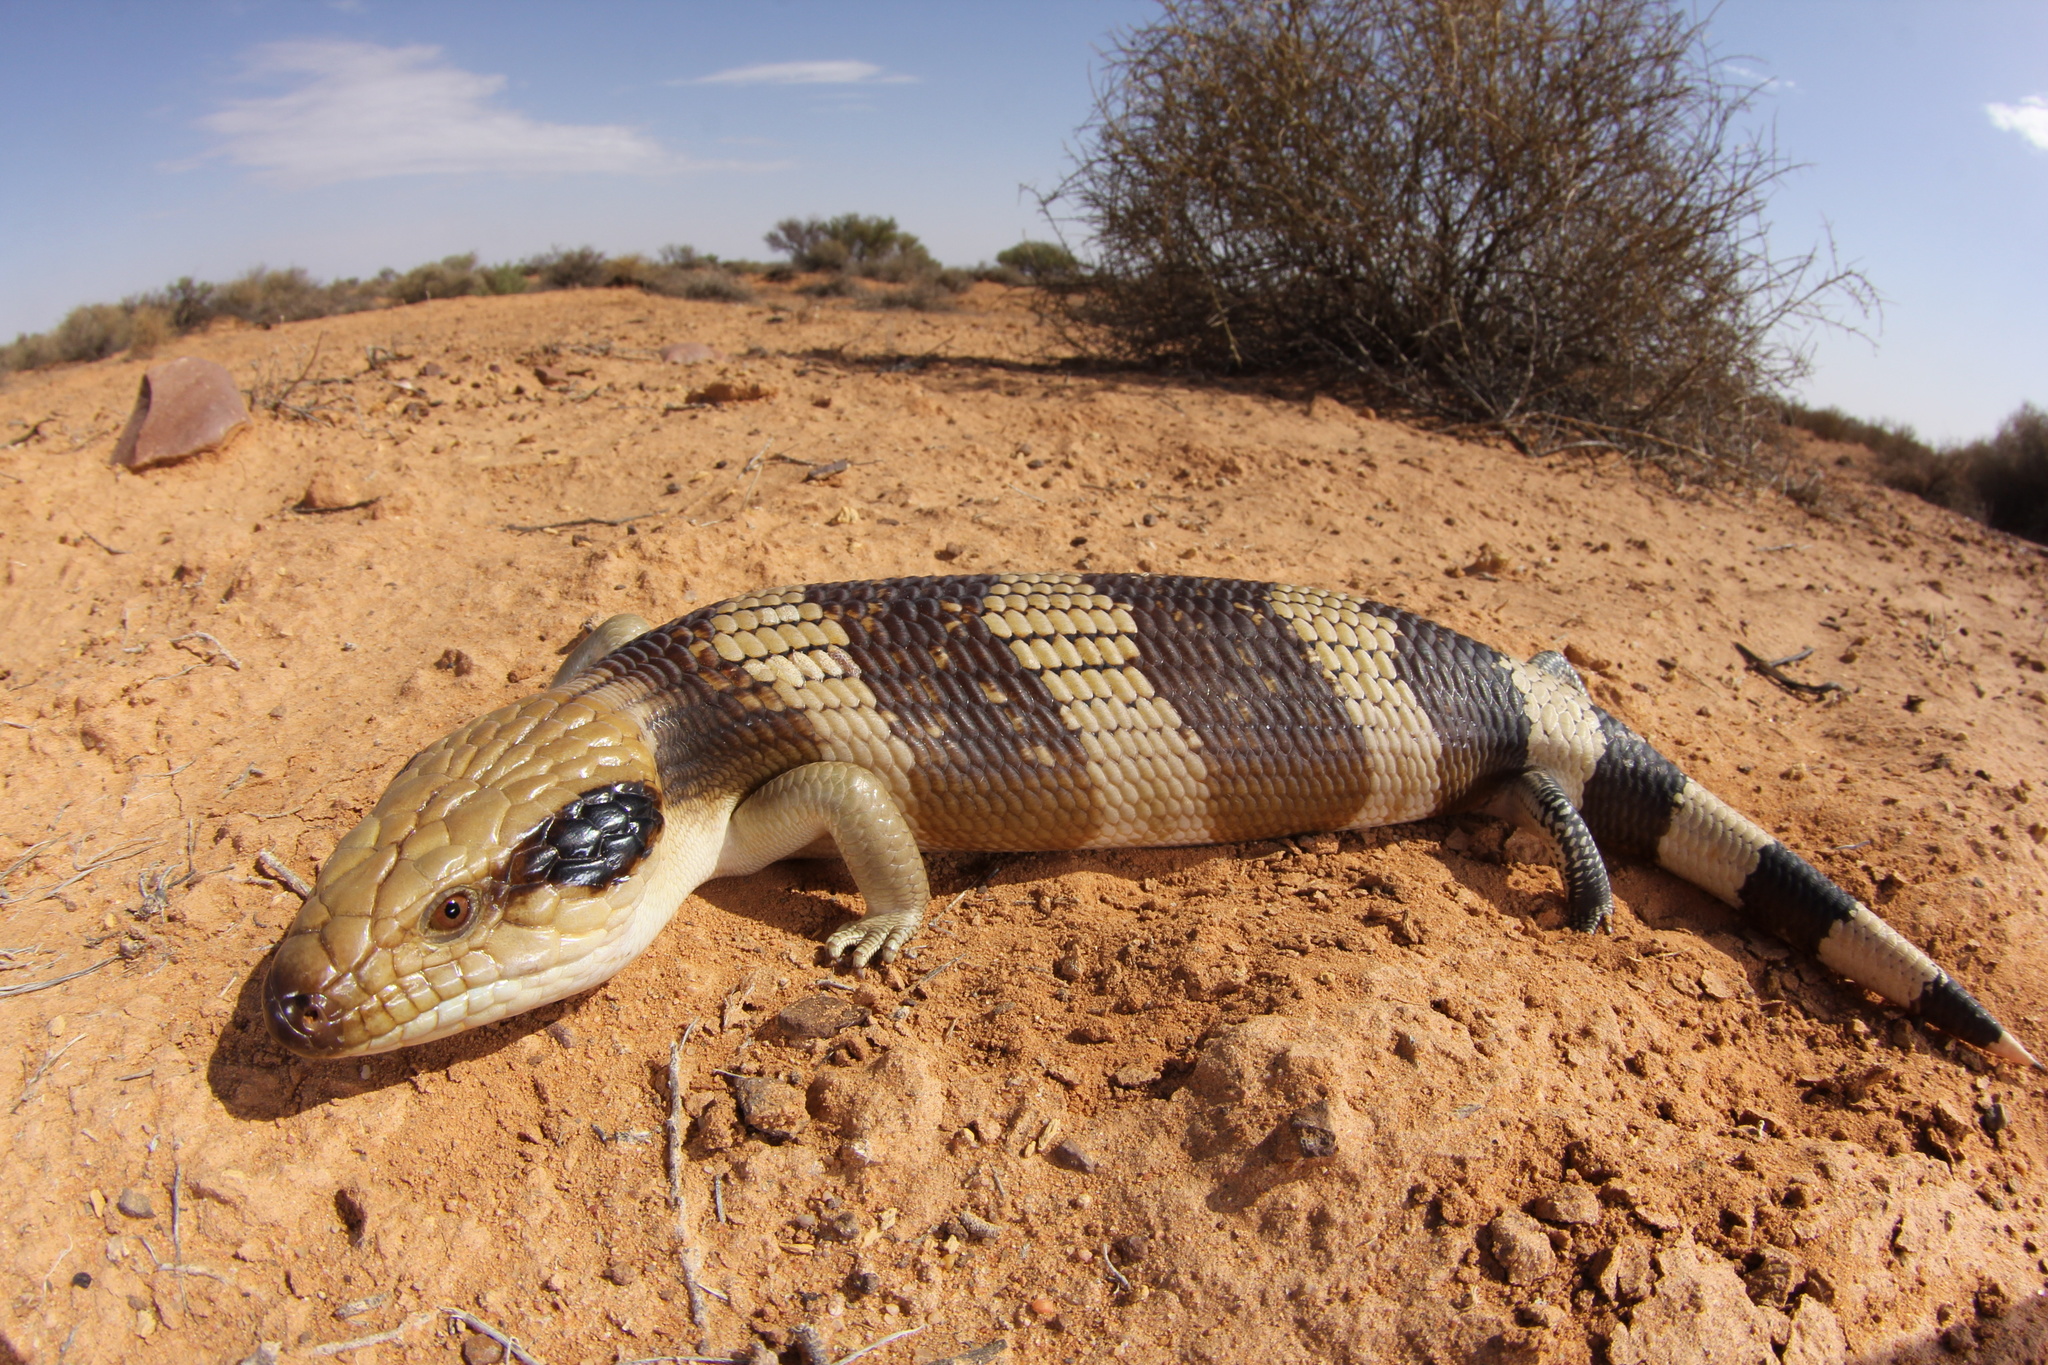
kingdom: Animalia
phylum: Chordata
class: Squamata
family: Scincidae
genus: Tiliqua
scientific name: Tiliqua occipitalis
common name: Western blue-tongued lizard
